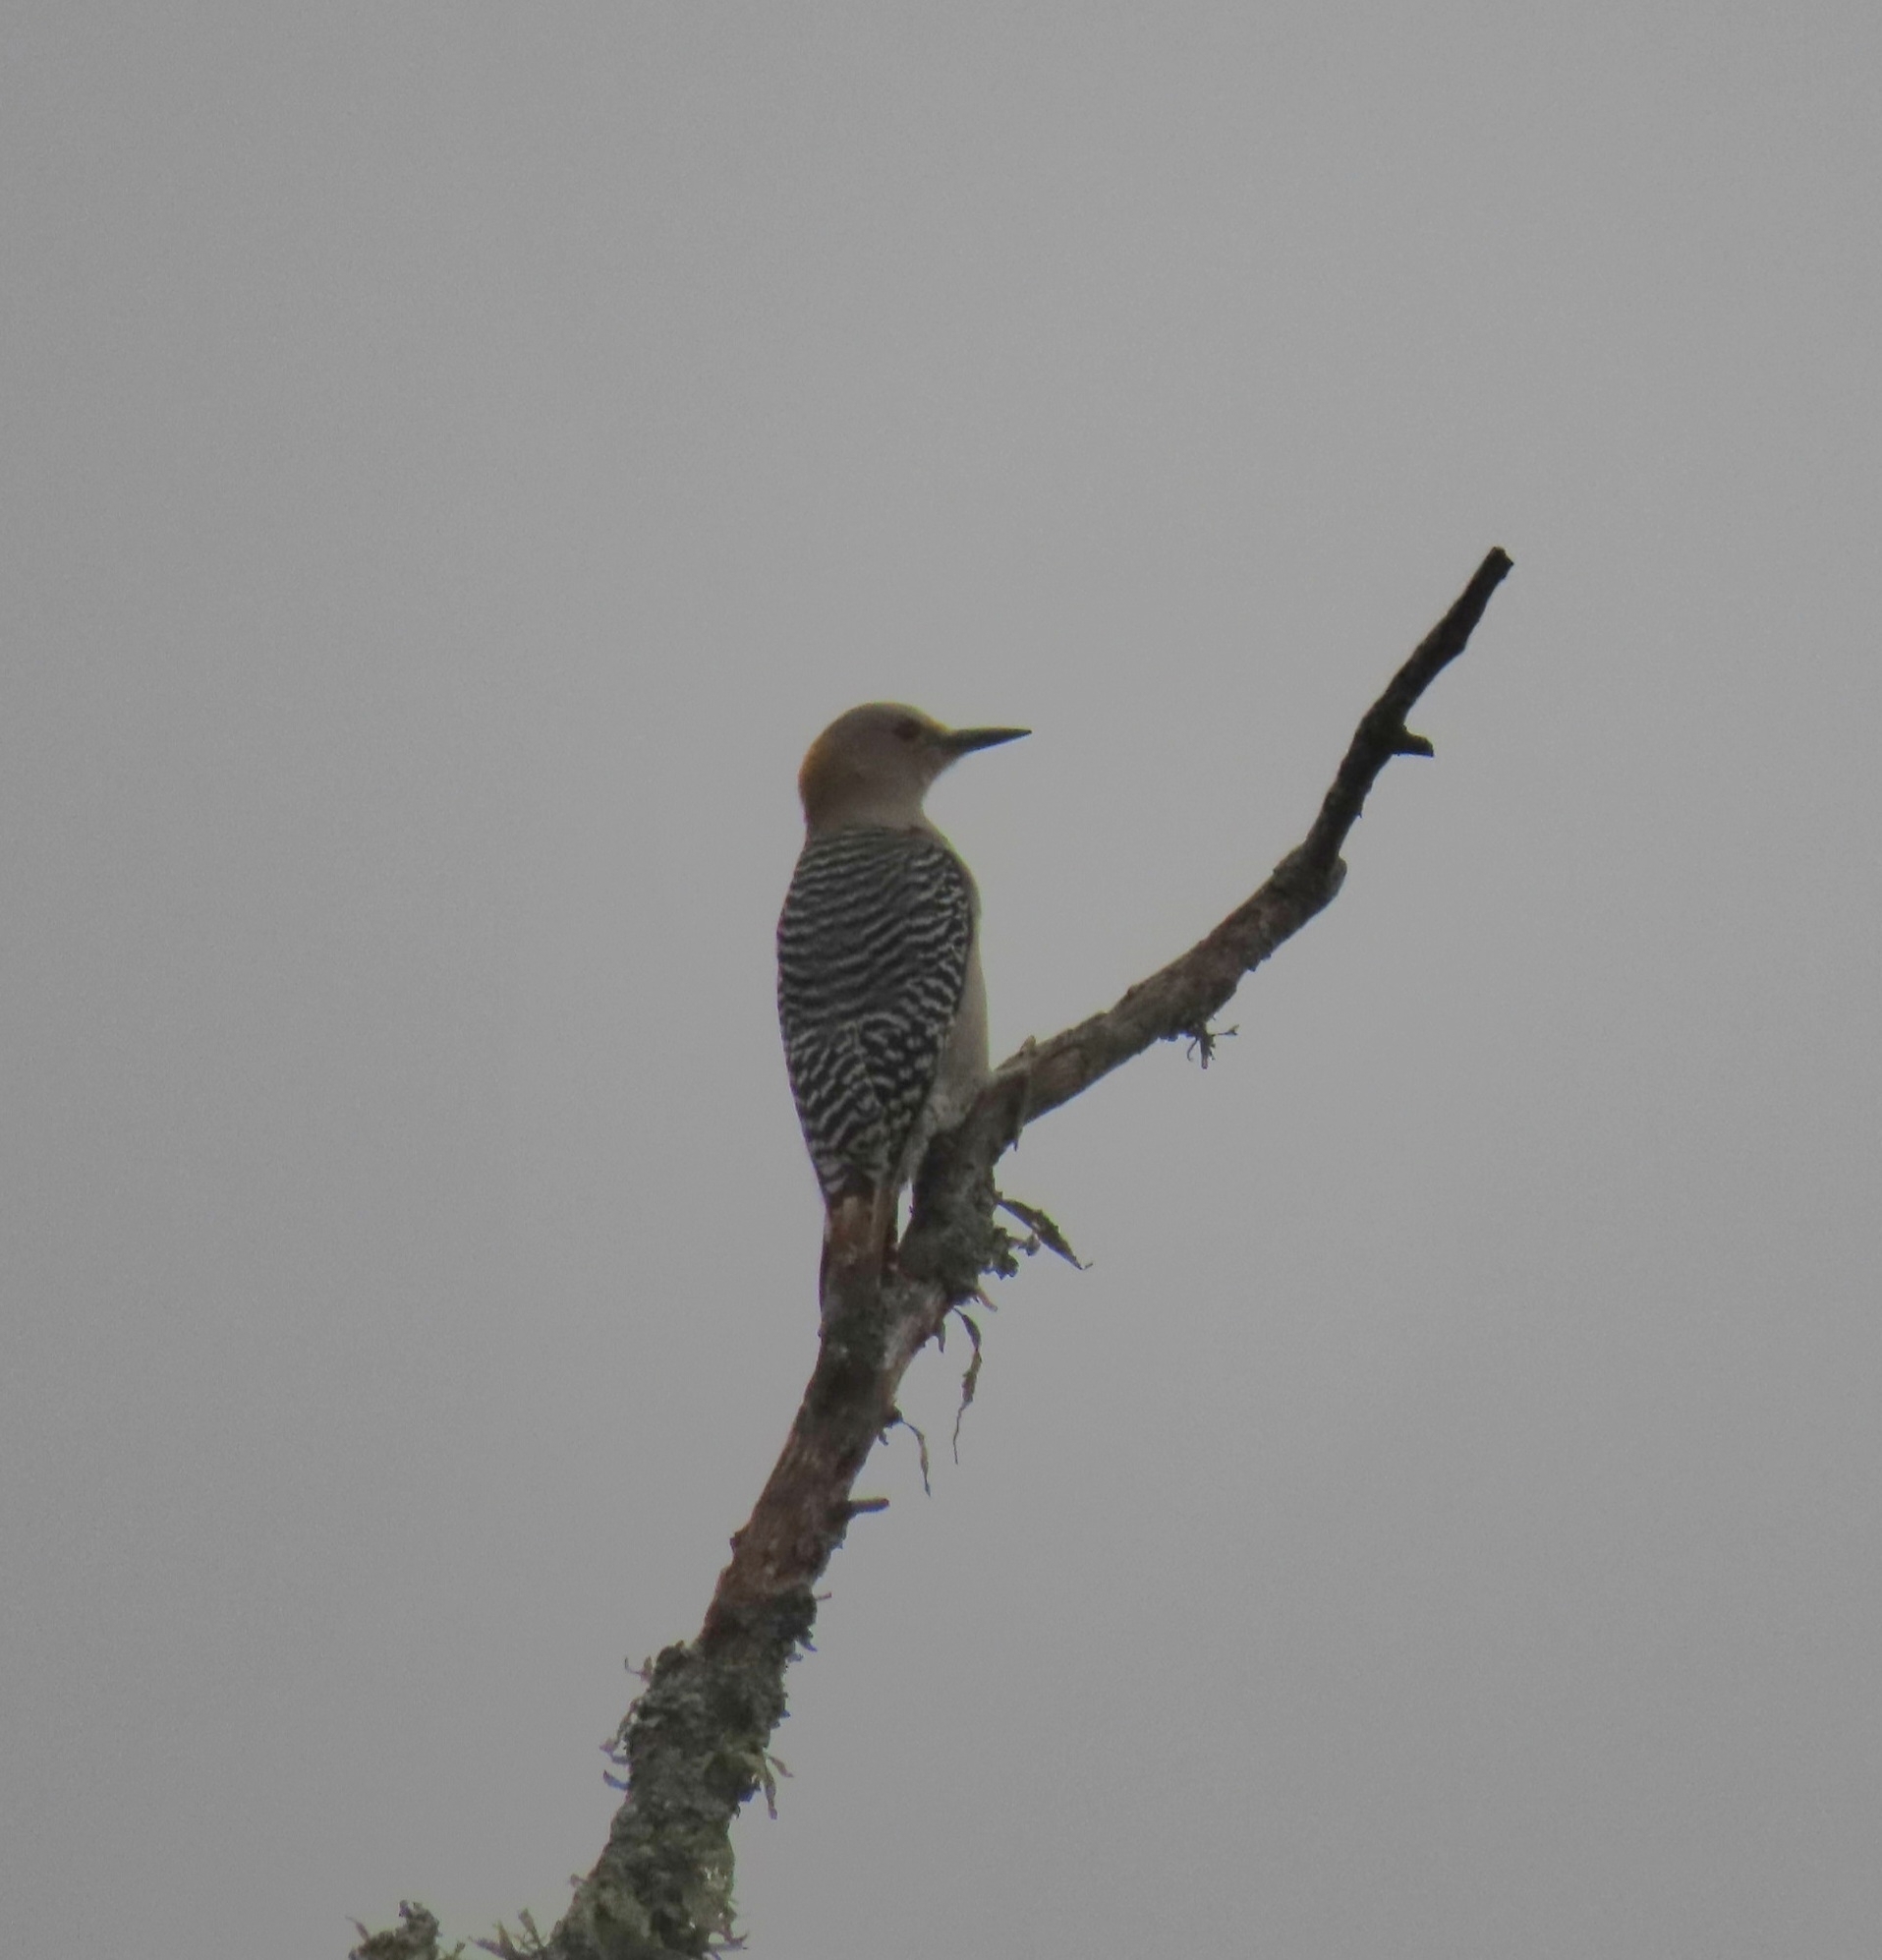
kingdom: Animalia
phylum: Chordata
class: Aves
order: Piciformes
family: Picidae
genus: Melanerpes
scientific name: Melanerpes aurifrons
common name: Golden-fronted woodpecker
